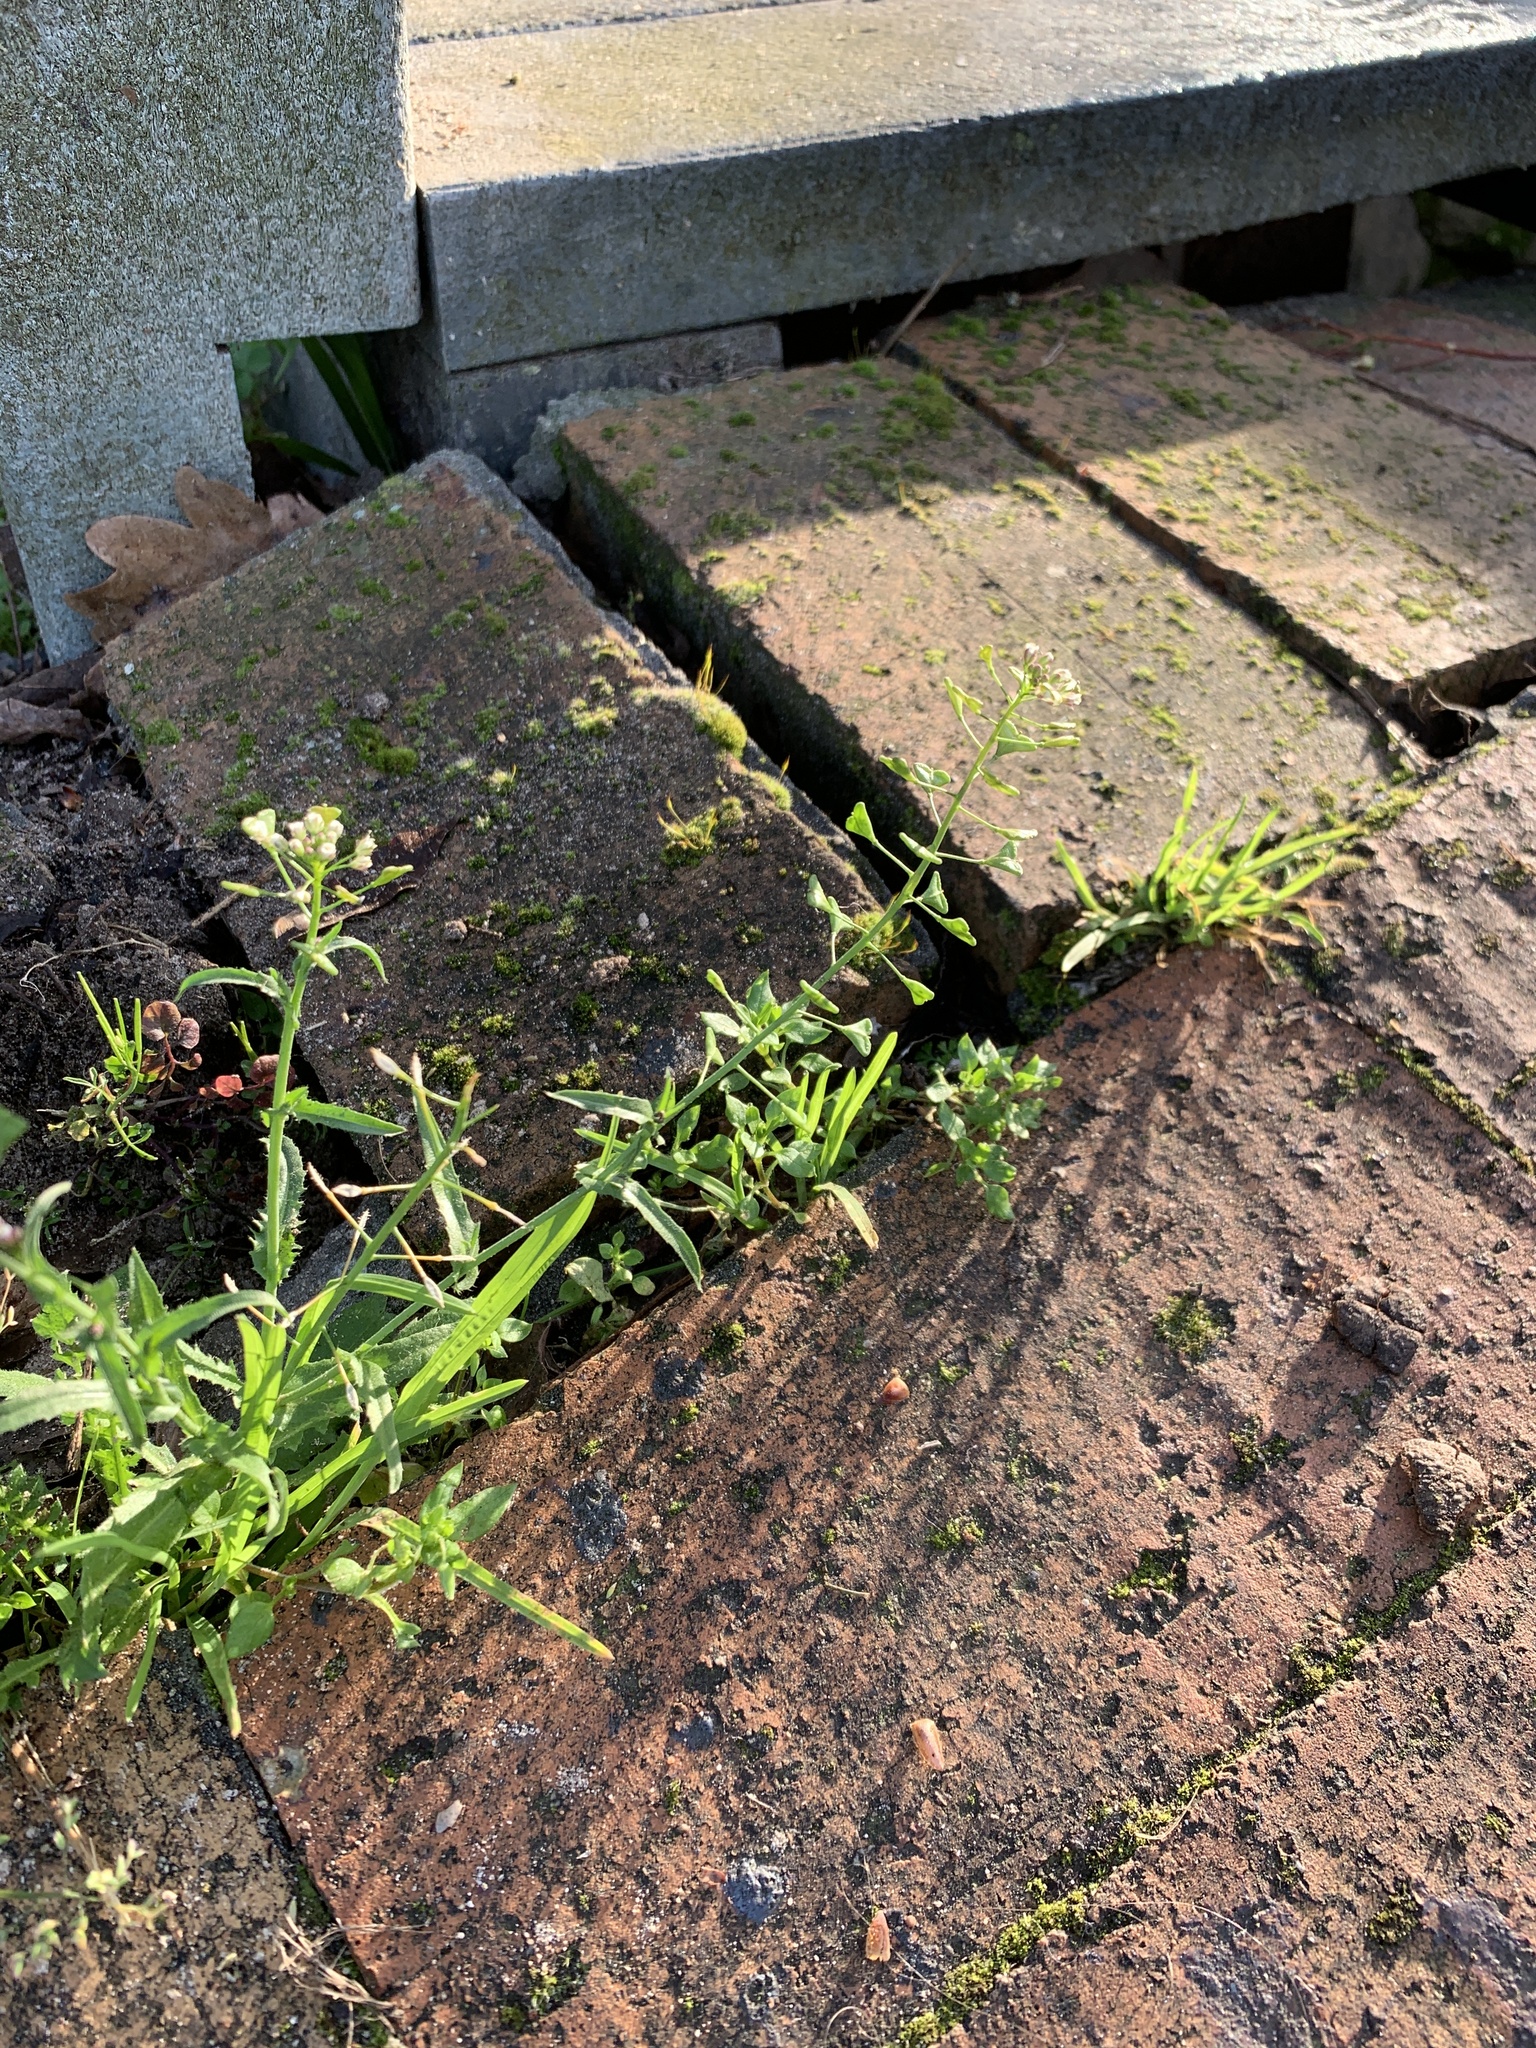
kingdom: Plantae
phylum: Tracheophyta
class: Magnoliopsida
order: Brassicales
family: Brassicaceae
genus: Capsella
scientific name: Capsella bursa-pastoris
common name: Shepherd's purse
